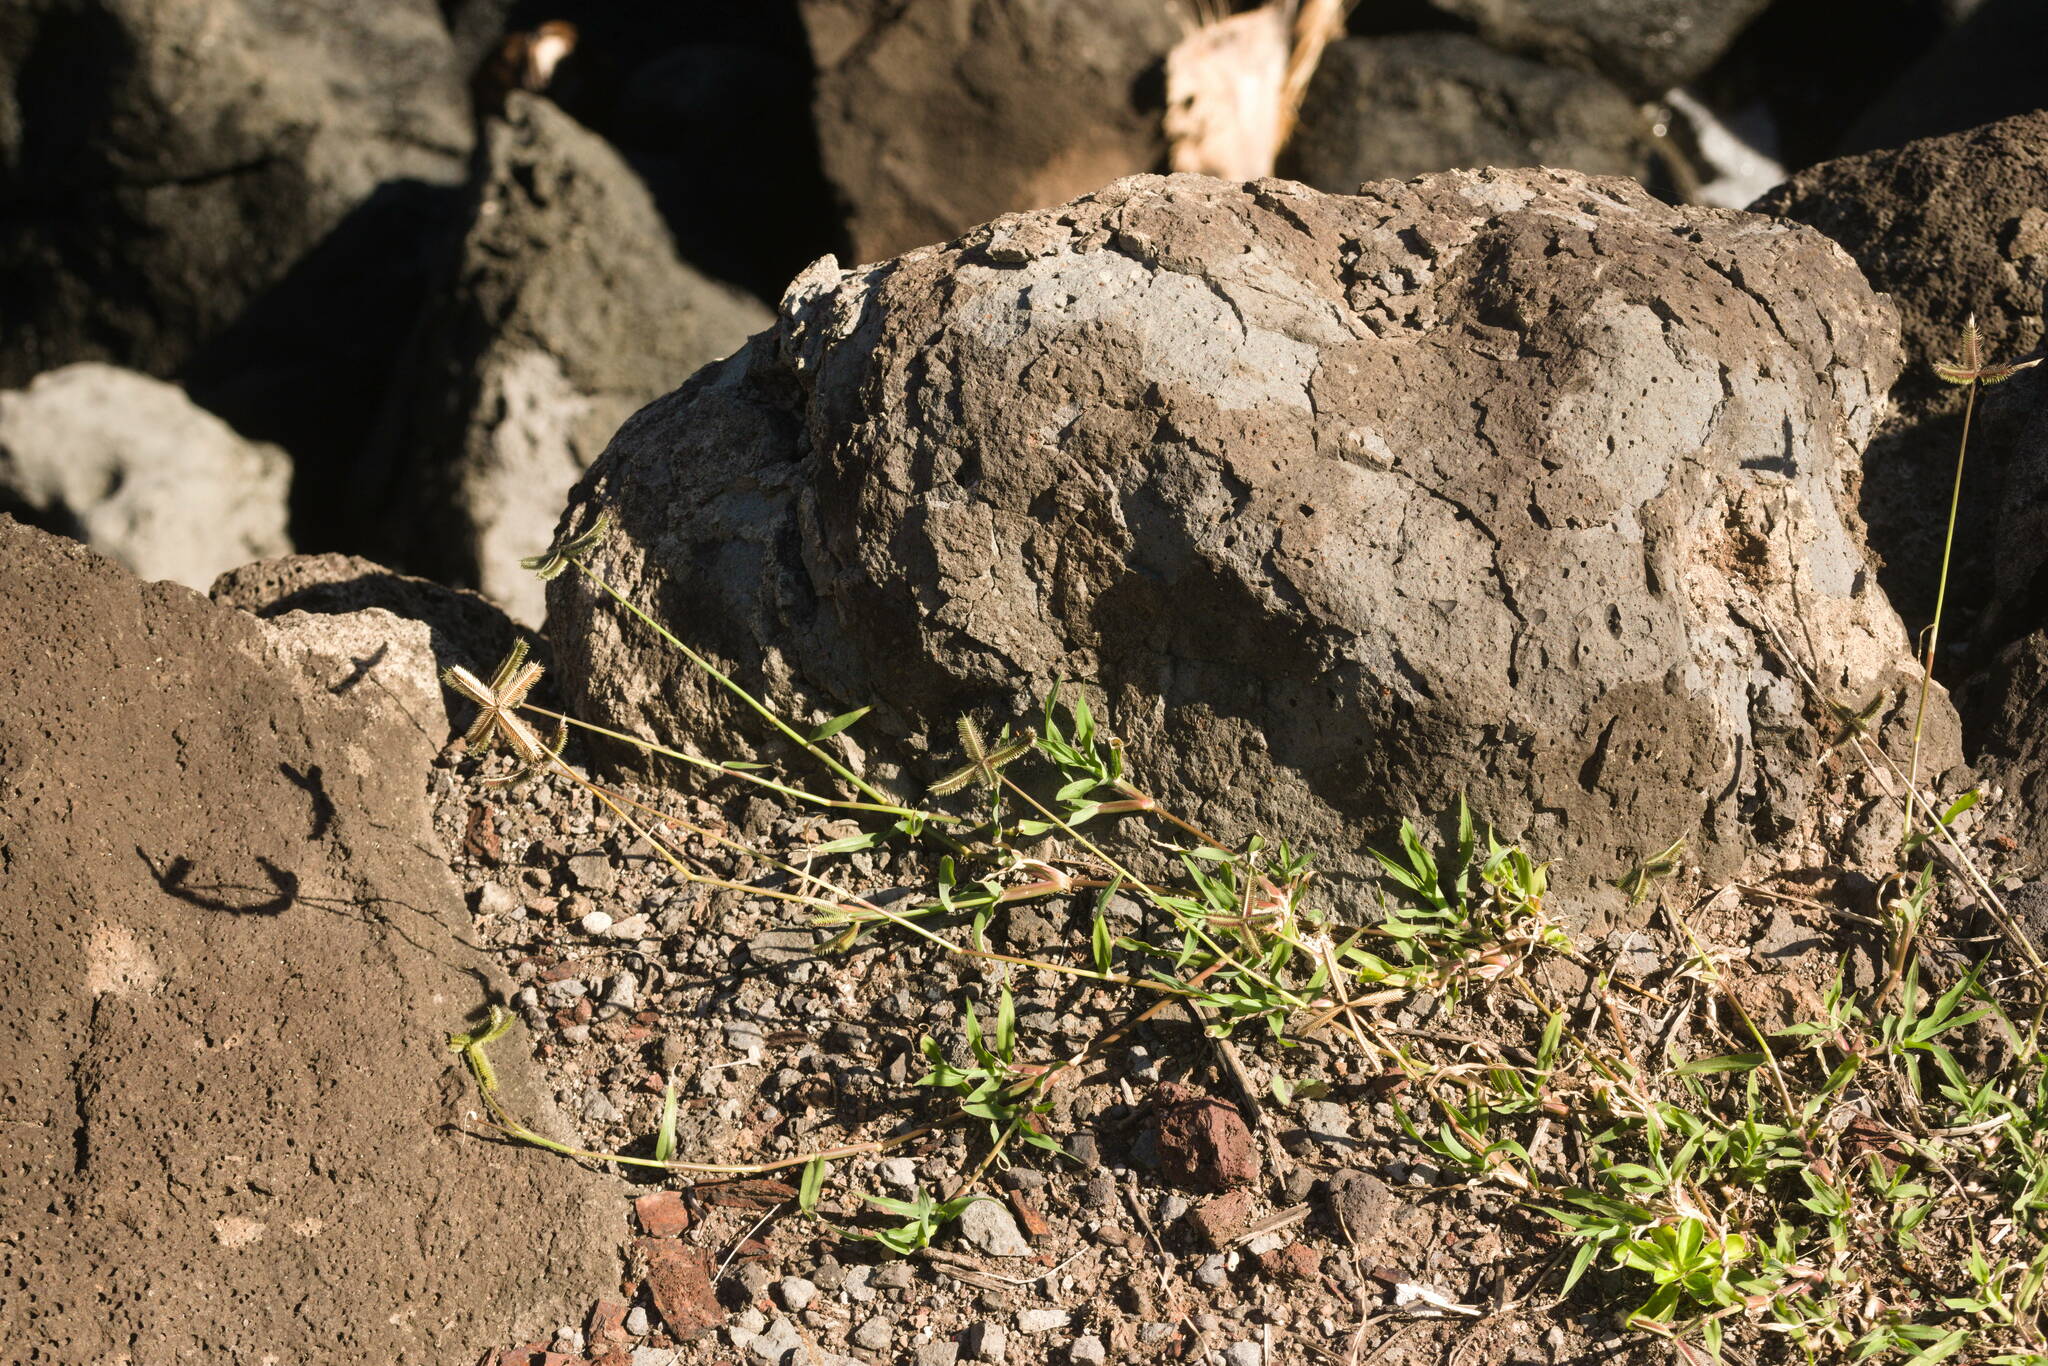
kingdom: Plantae
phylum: Tracheophyta
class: Liliopsida
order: Poales
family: Poaceae
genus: Dactyloctenium
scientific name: Dactyloctenium aegyptium
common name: Egyptian grass
